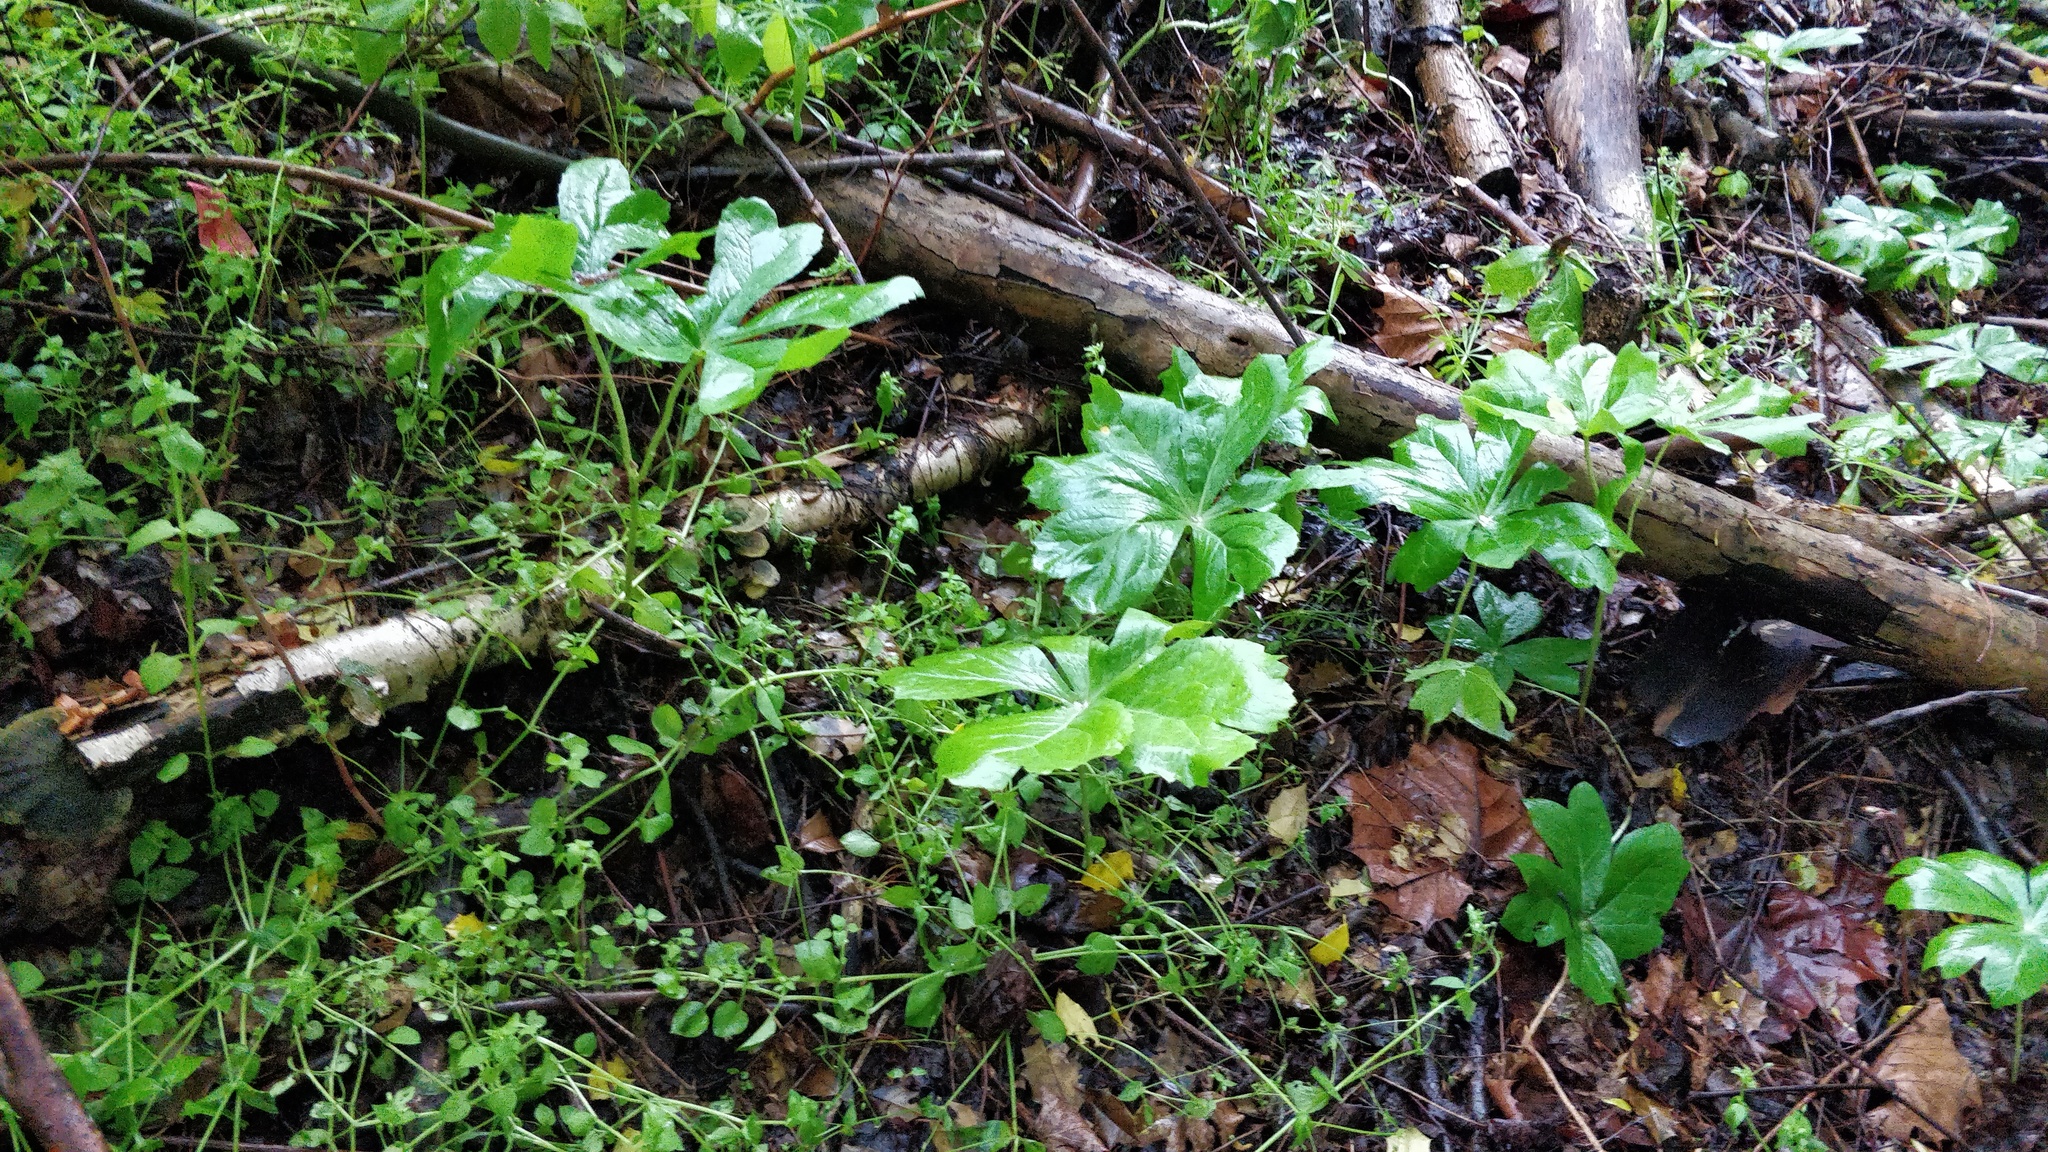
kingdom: Plantae
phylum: Tracheophyta
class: Magnoliopsida
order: Ranunculales
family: Berberidaceae
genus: Podophyllum
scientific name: Podophyllum peltatum
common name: Wild mandrake
